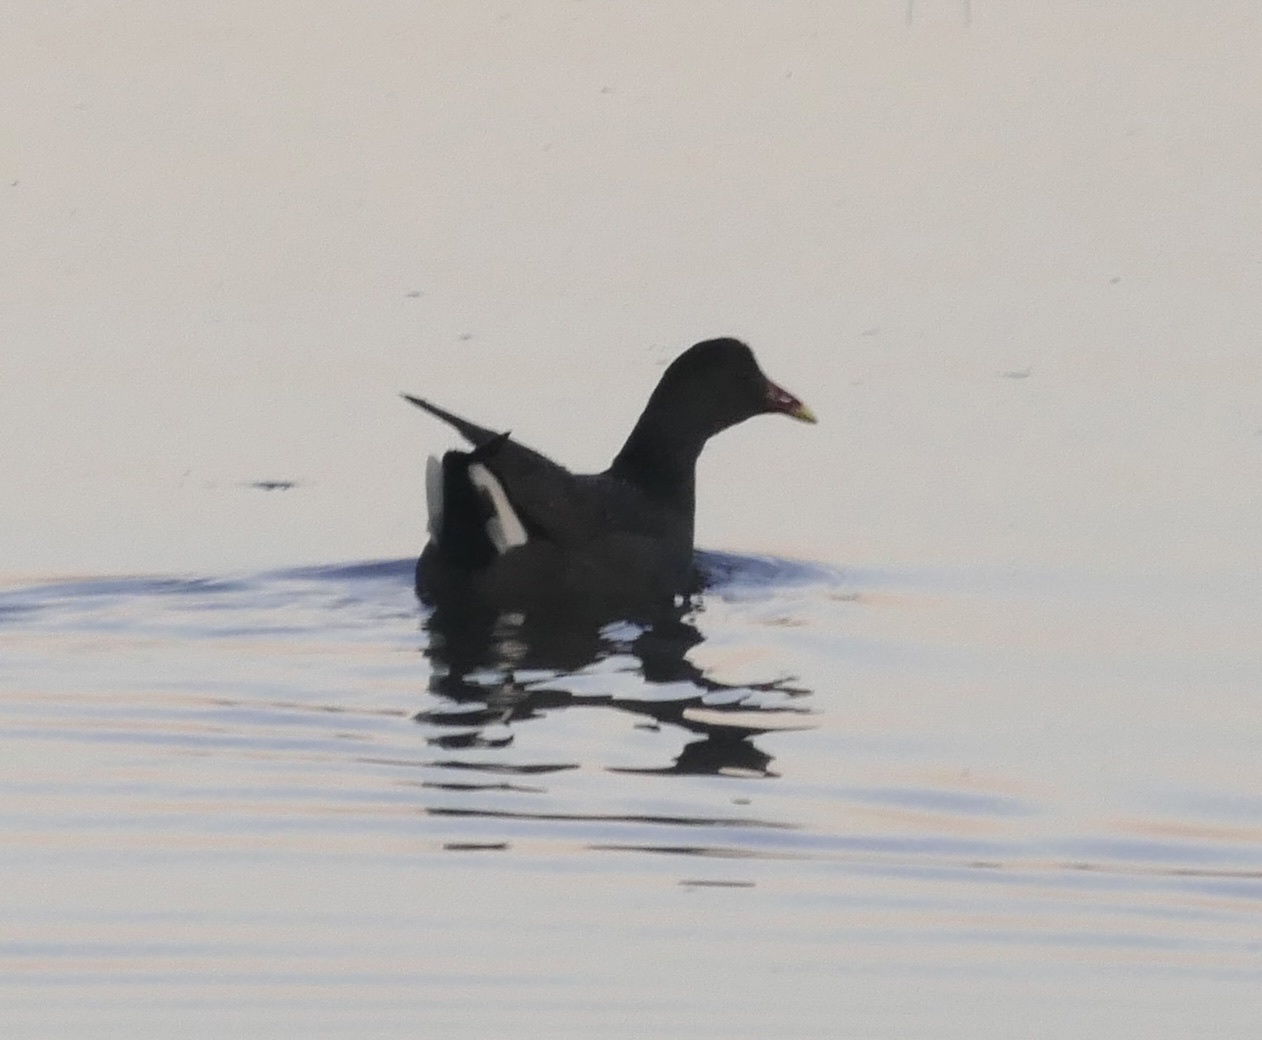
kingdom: Animalia
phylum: Chordata
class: Aves
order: Gruiformes
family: Rallidae
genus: Gallinula
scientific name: Gallinula tenebrosa
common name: Dusky moorhen
